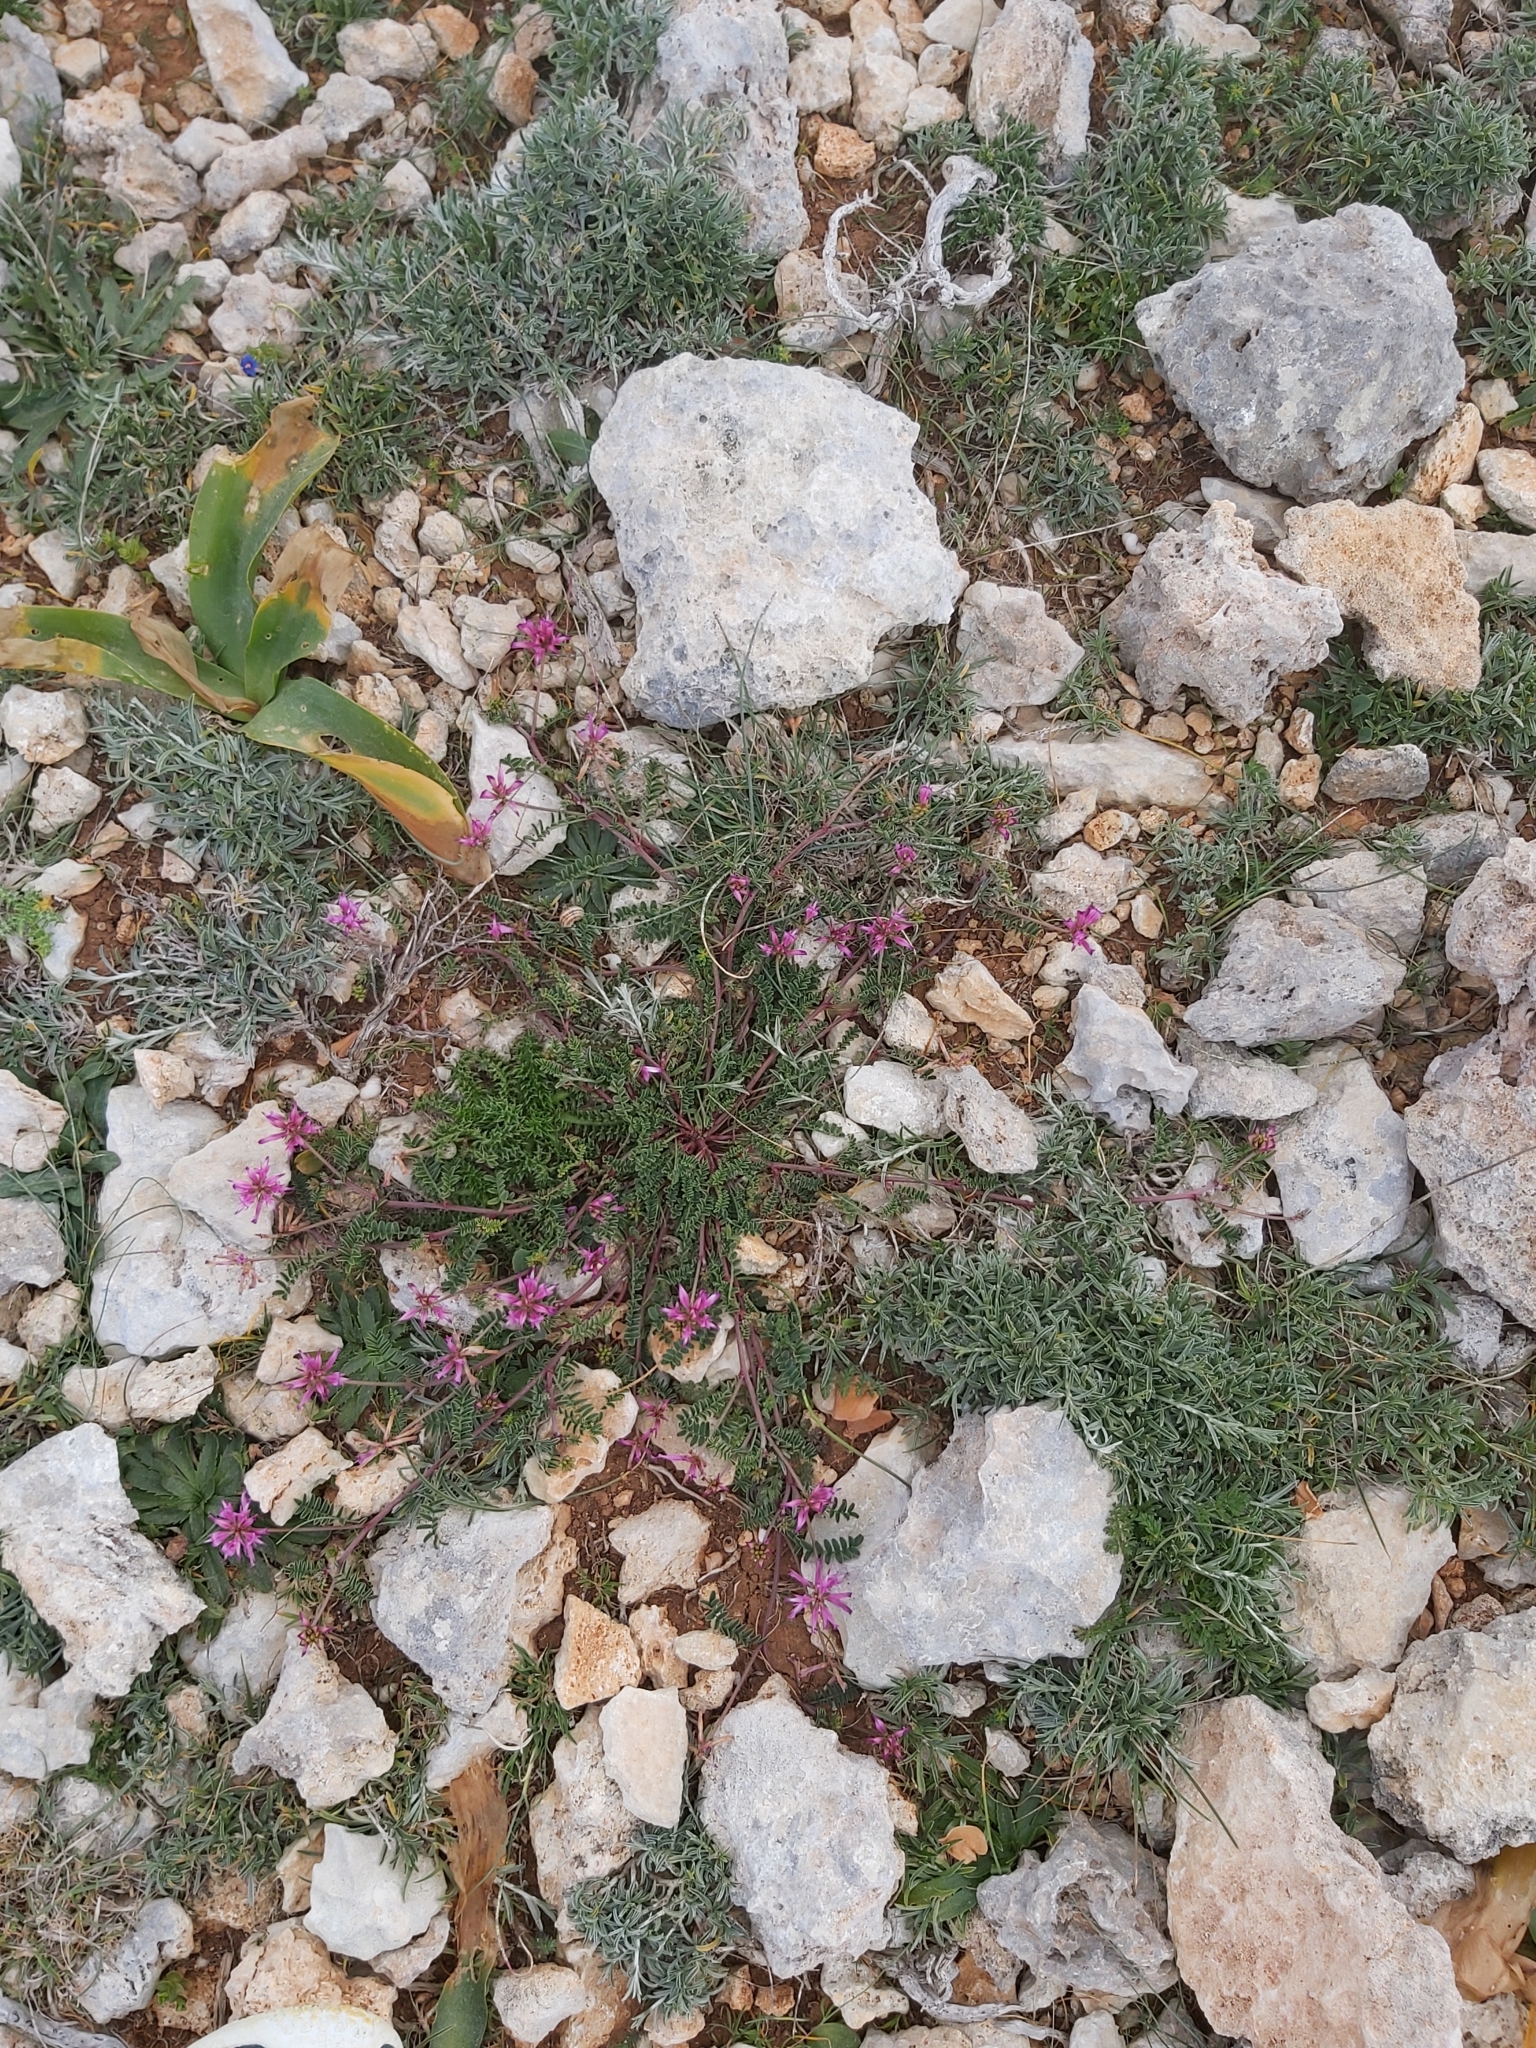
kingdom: Plantae
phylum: Tracheophyta
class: Magnoliopsida
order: Fabales
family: Fabaceae
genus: Sulla
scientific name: Sulla glomerata
